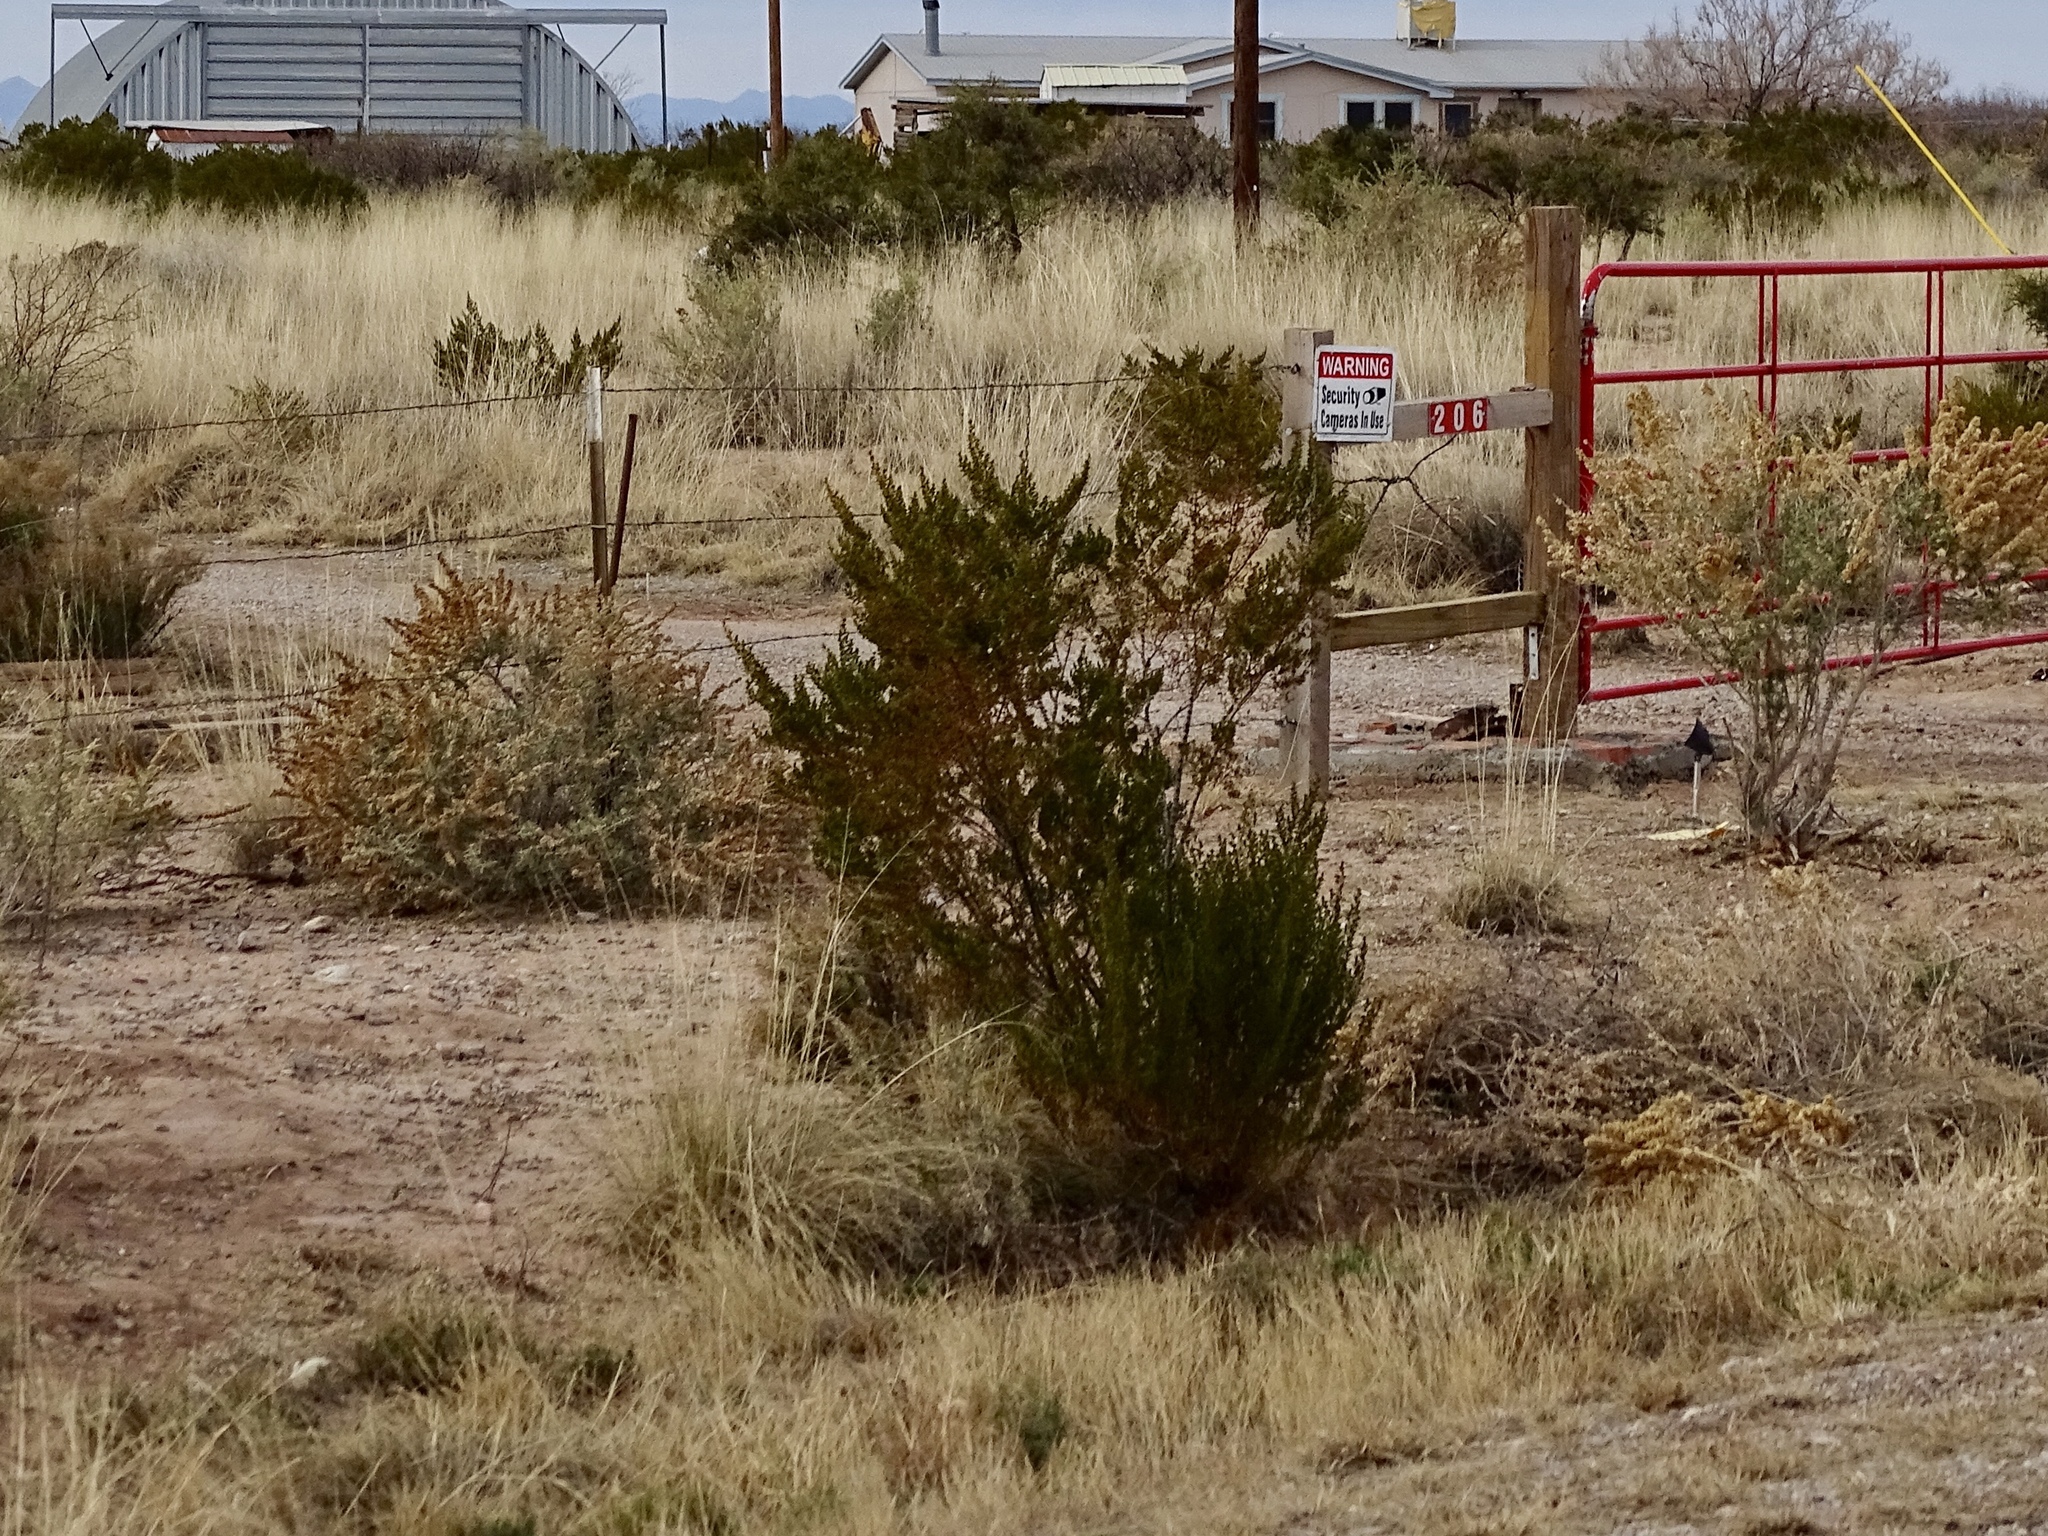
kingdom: Plantae
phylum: Tracheophyta
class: Magnoliopsida
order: Zygophyllales
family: Zygophyllaceae
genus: Larrea
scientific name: Larrea tridentata
